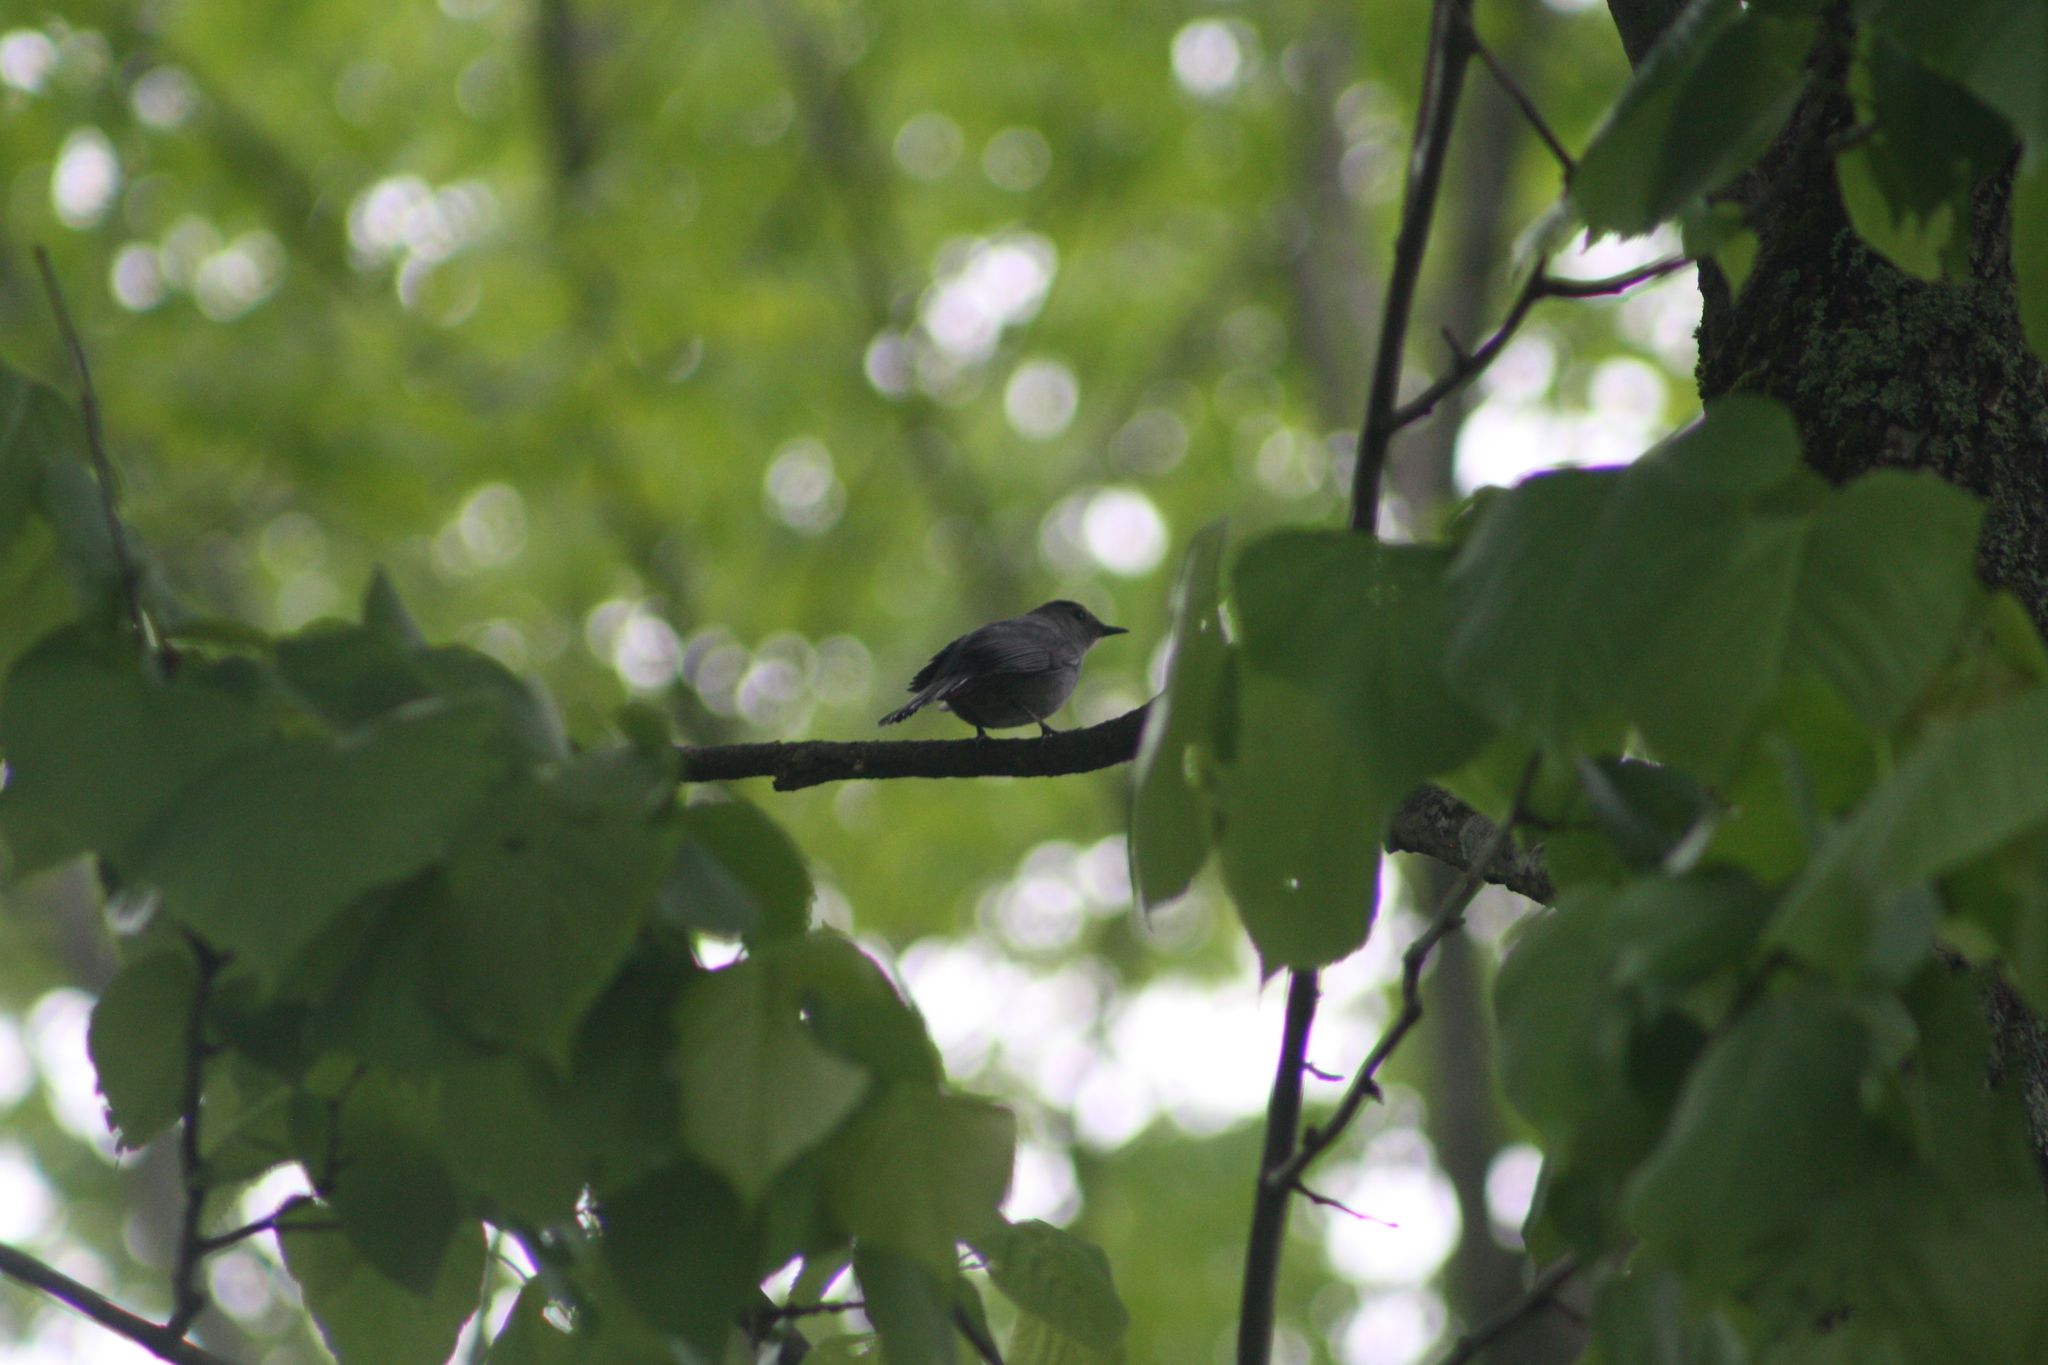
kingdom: Animalia
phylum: Chordata
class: Aves
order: Passeriformes
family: Mimidae
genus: Dumetella
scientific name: Dumetella carolinensis
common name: Gray catbird
